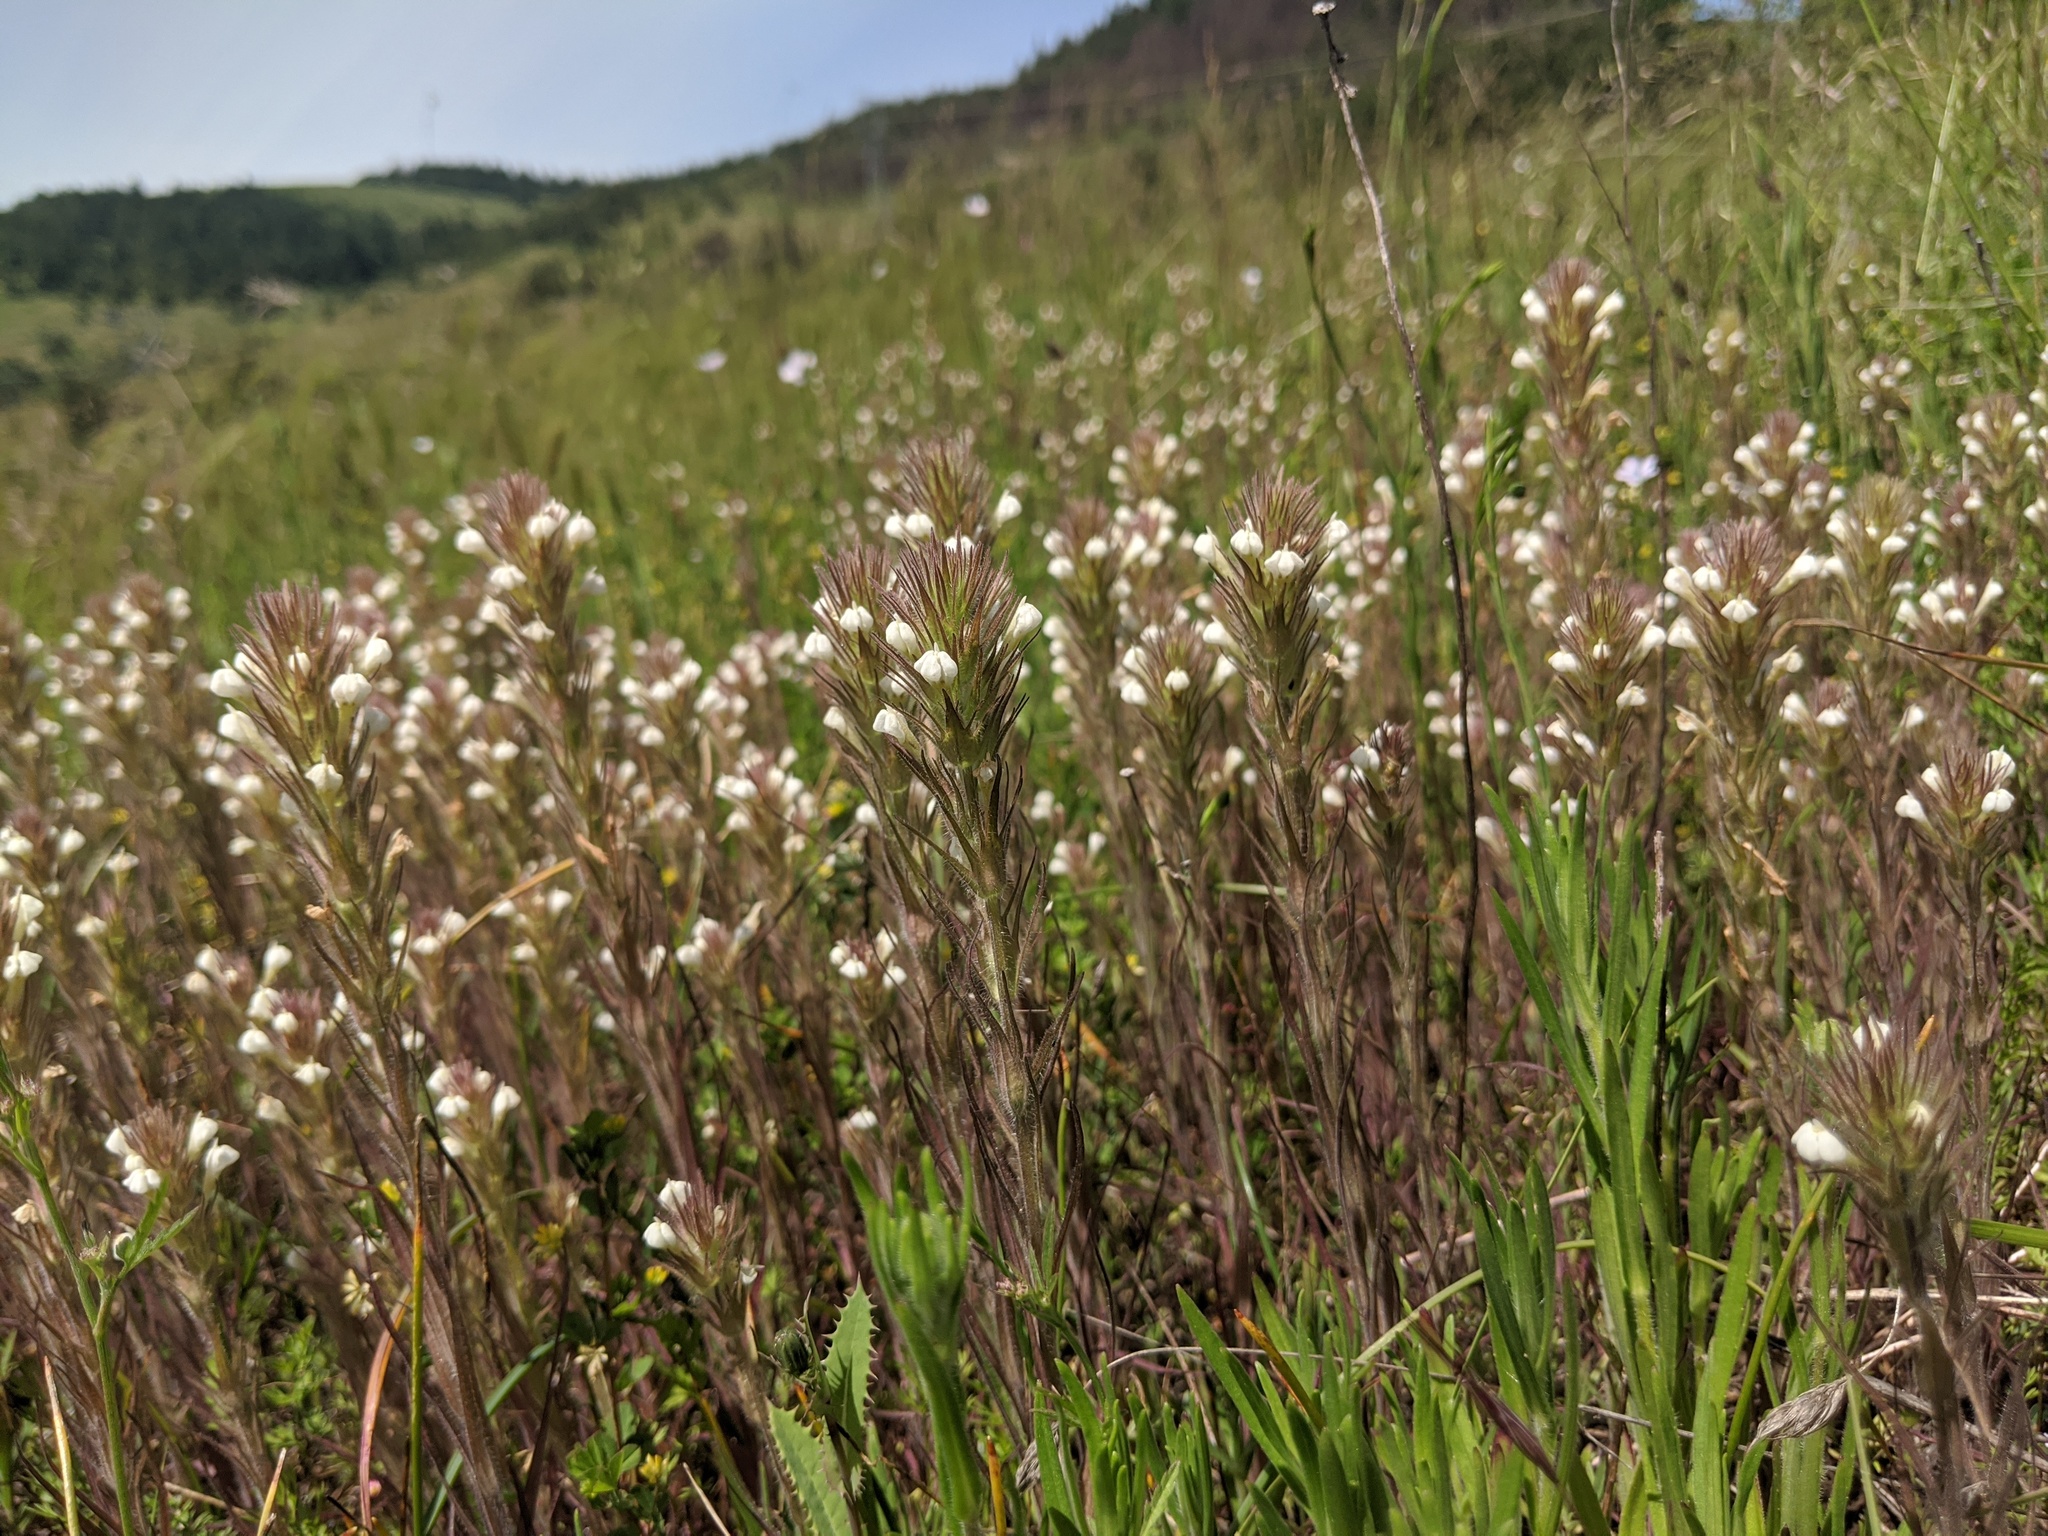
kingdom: Plantae
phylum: Tracheophyta
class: Magnoliopsida
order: Lamiales
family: Orobanchaceae
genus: Castilleja
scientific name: Castilleja tenuis
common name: Hairy indian paintbrush
